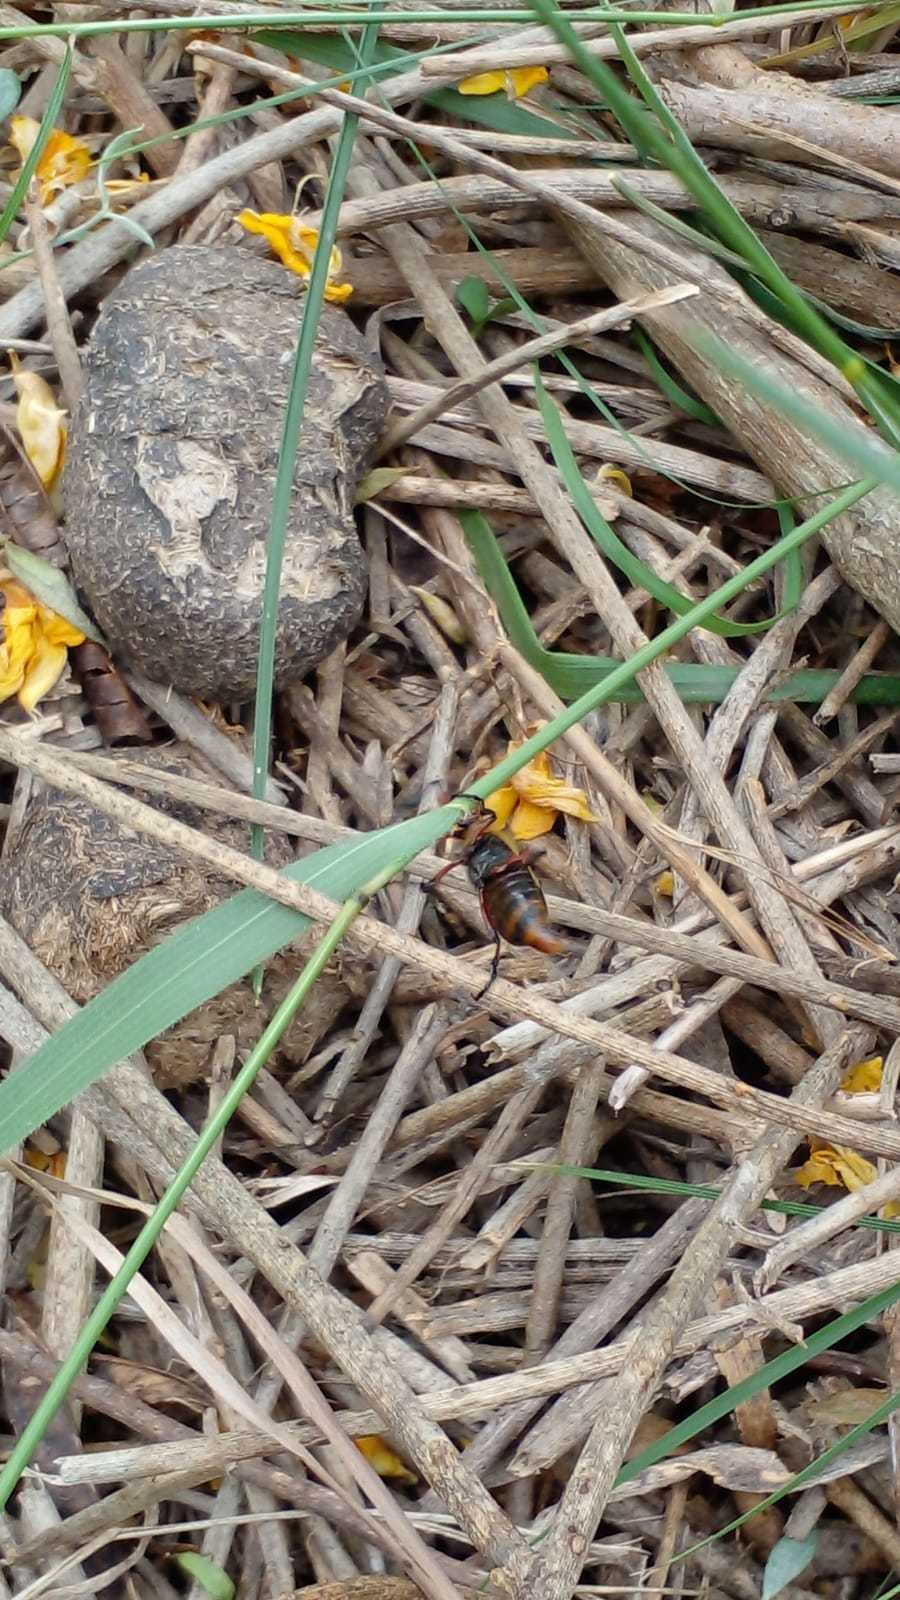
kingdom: Animalia
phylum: Arthropoda
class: Insecta
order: Coleoptera
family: Meloidae
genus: Pyrota
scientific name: Pyrota
